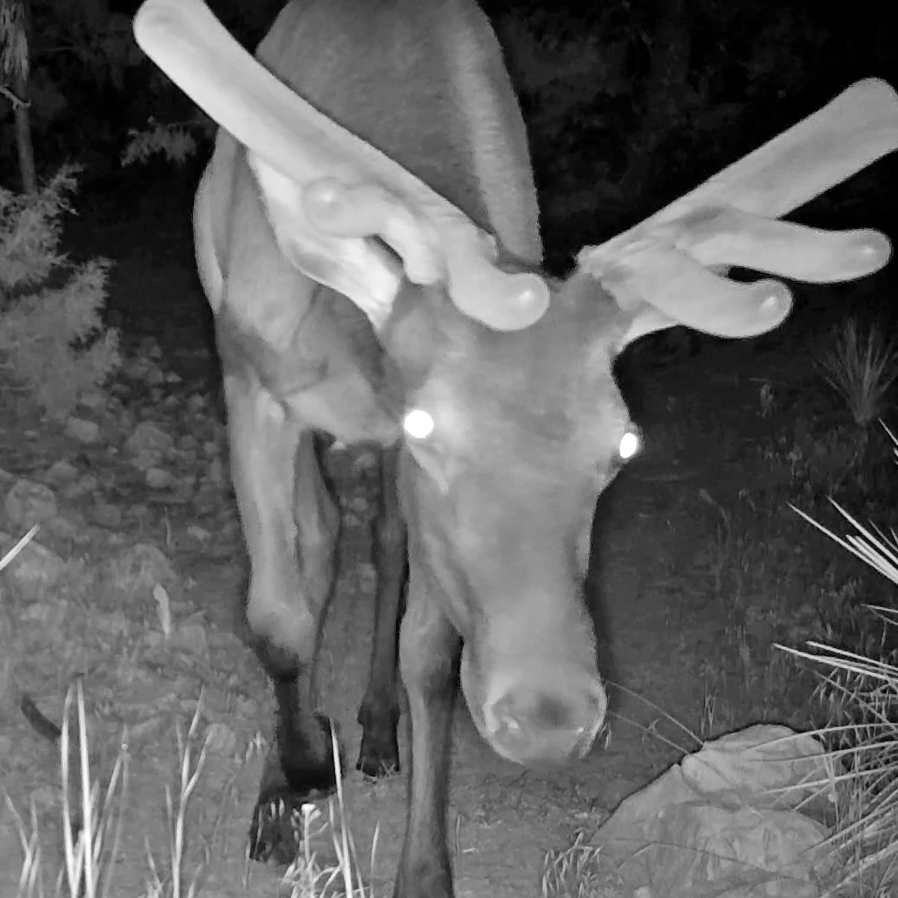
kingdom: Animalia
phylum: Chordata
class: Mammalia
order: Artiodactyla
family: Cervidae
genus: Cervus
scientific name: Cervus elaphus
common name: Red deer
